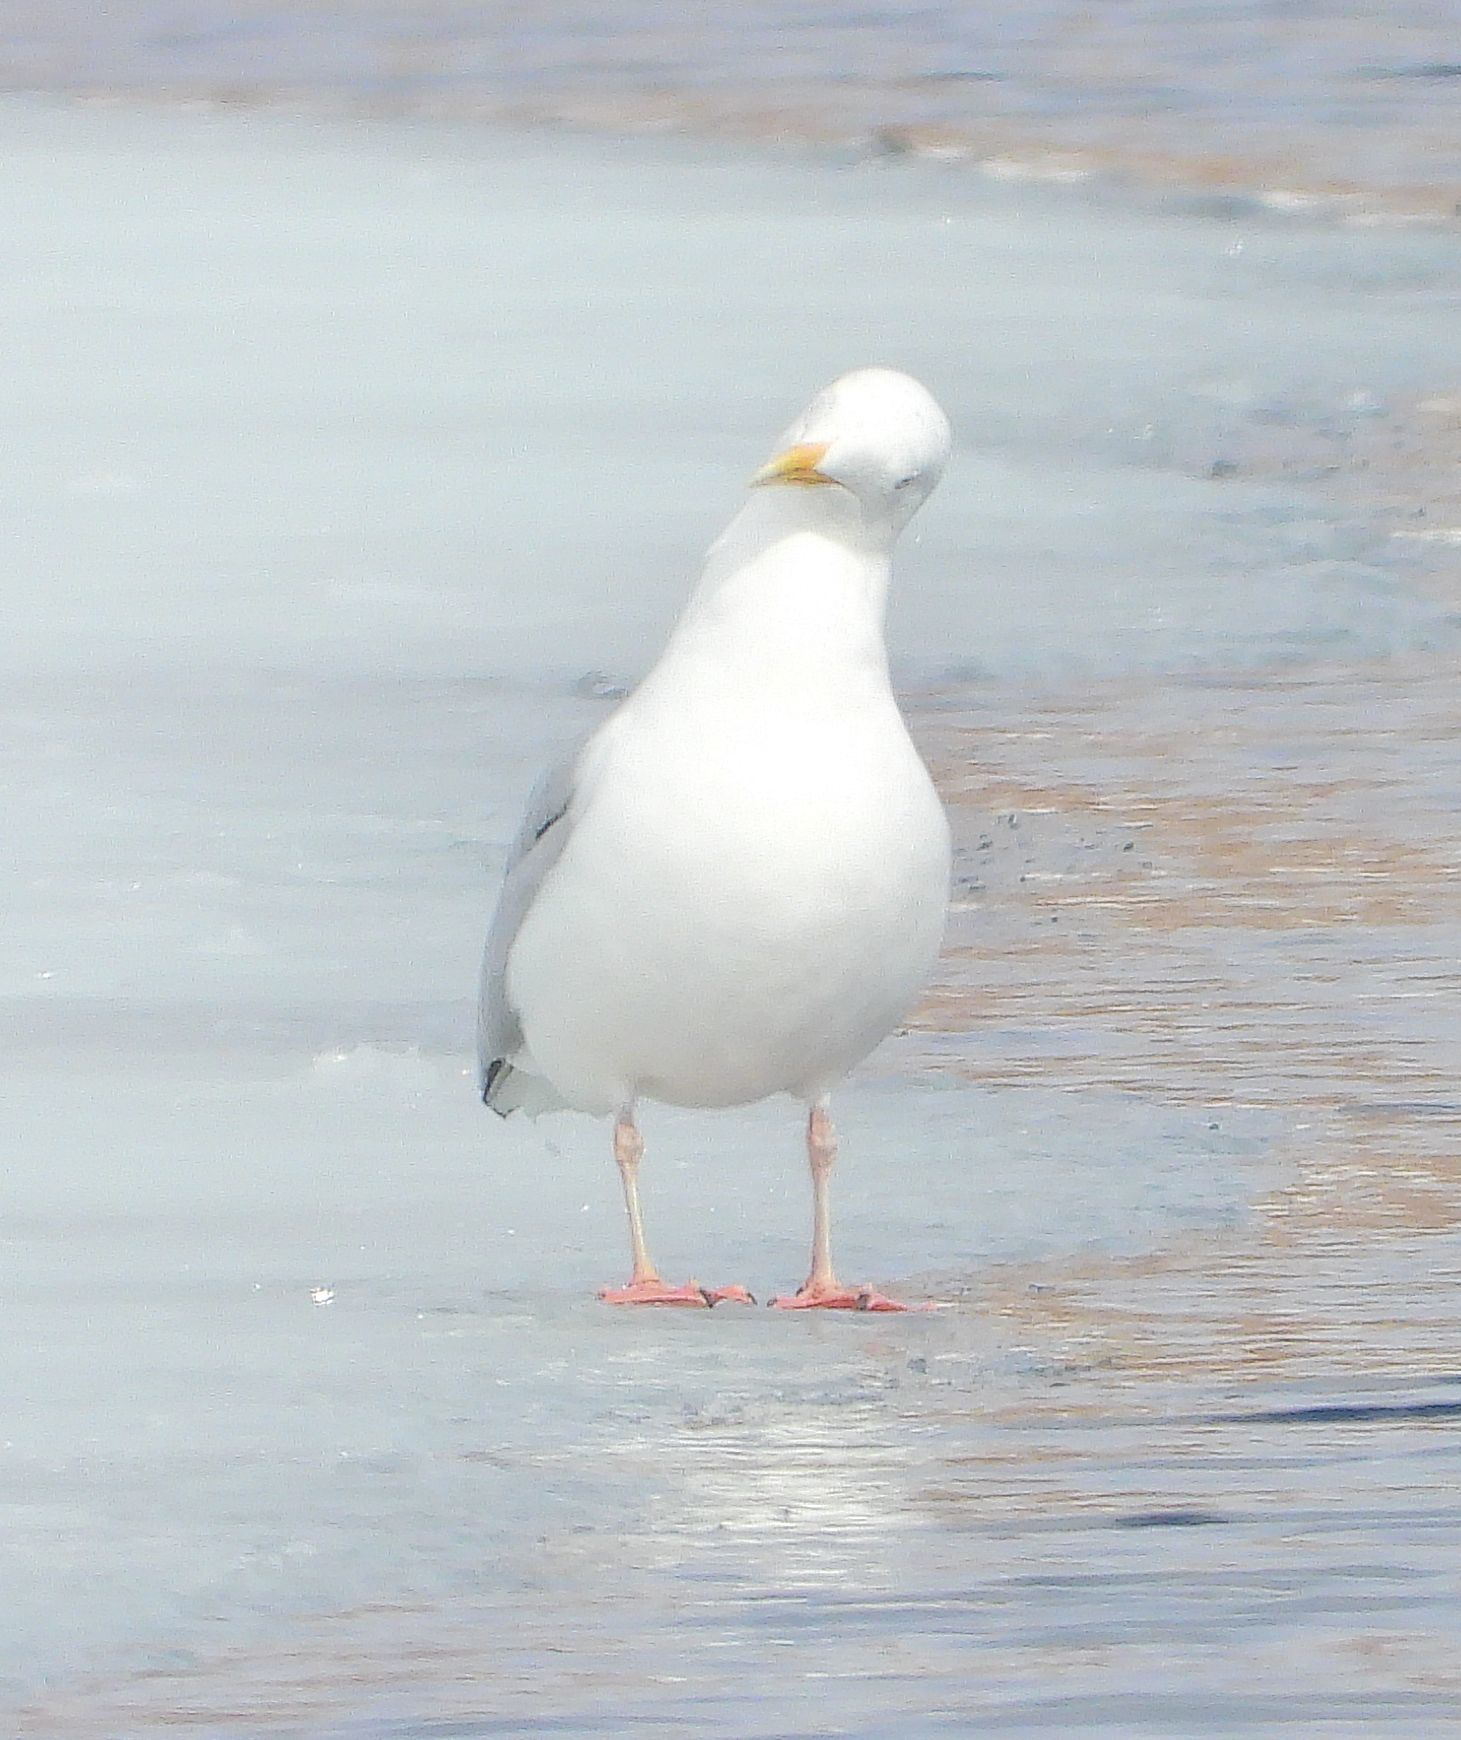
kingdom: Animalia
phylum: Chordata
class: Aves
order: Charadriiformes
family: Laridae
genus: Larus
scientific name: Larus argentatus
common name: Herring gull
